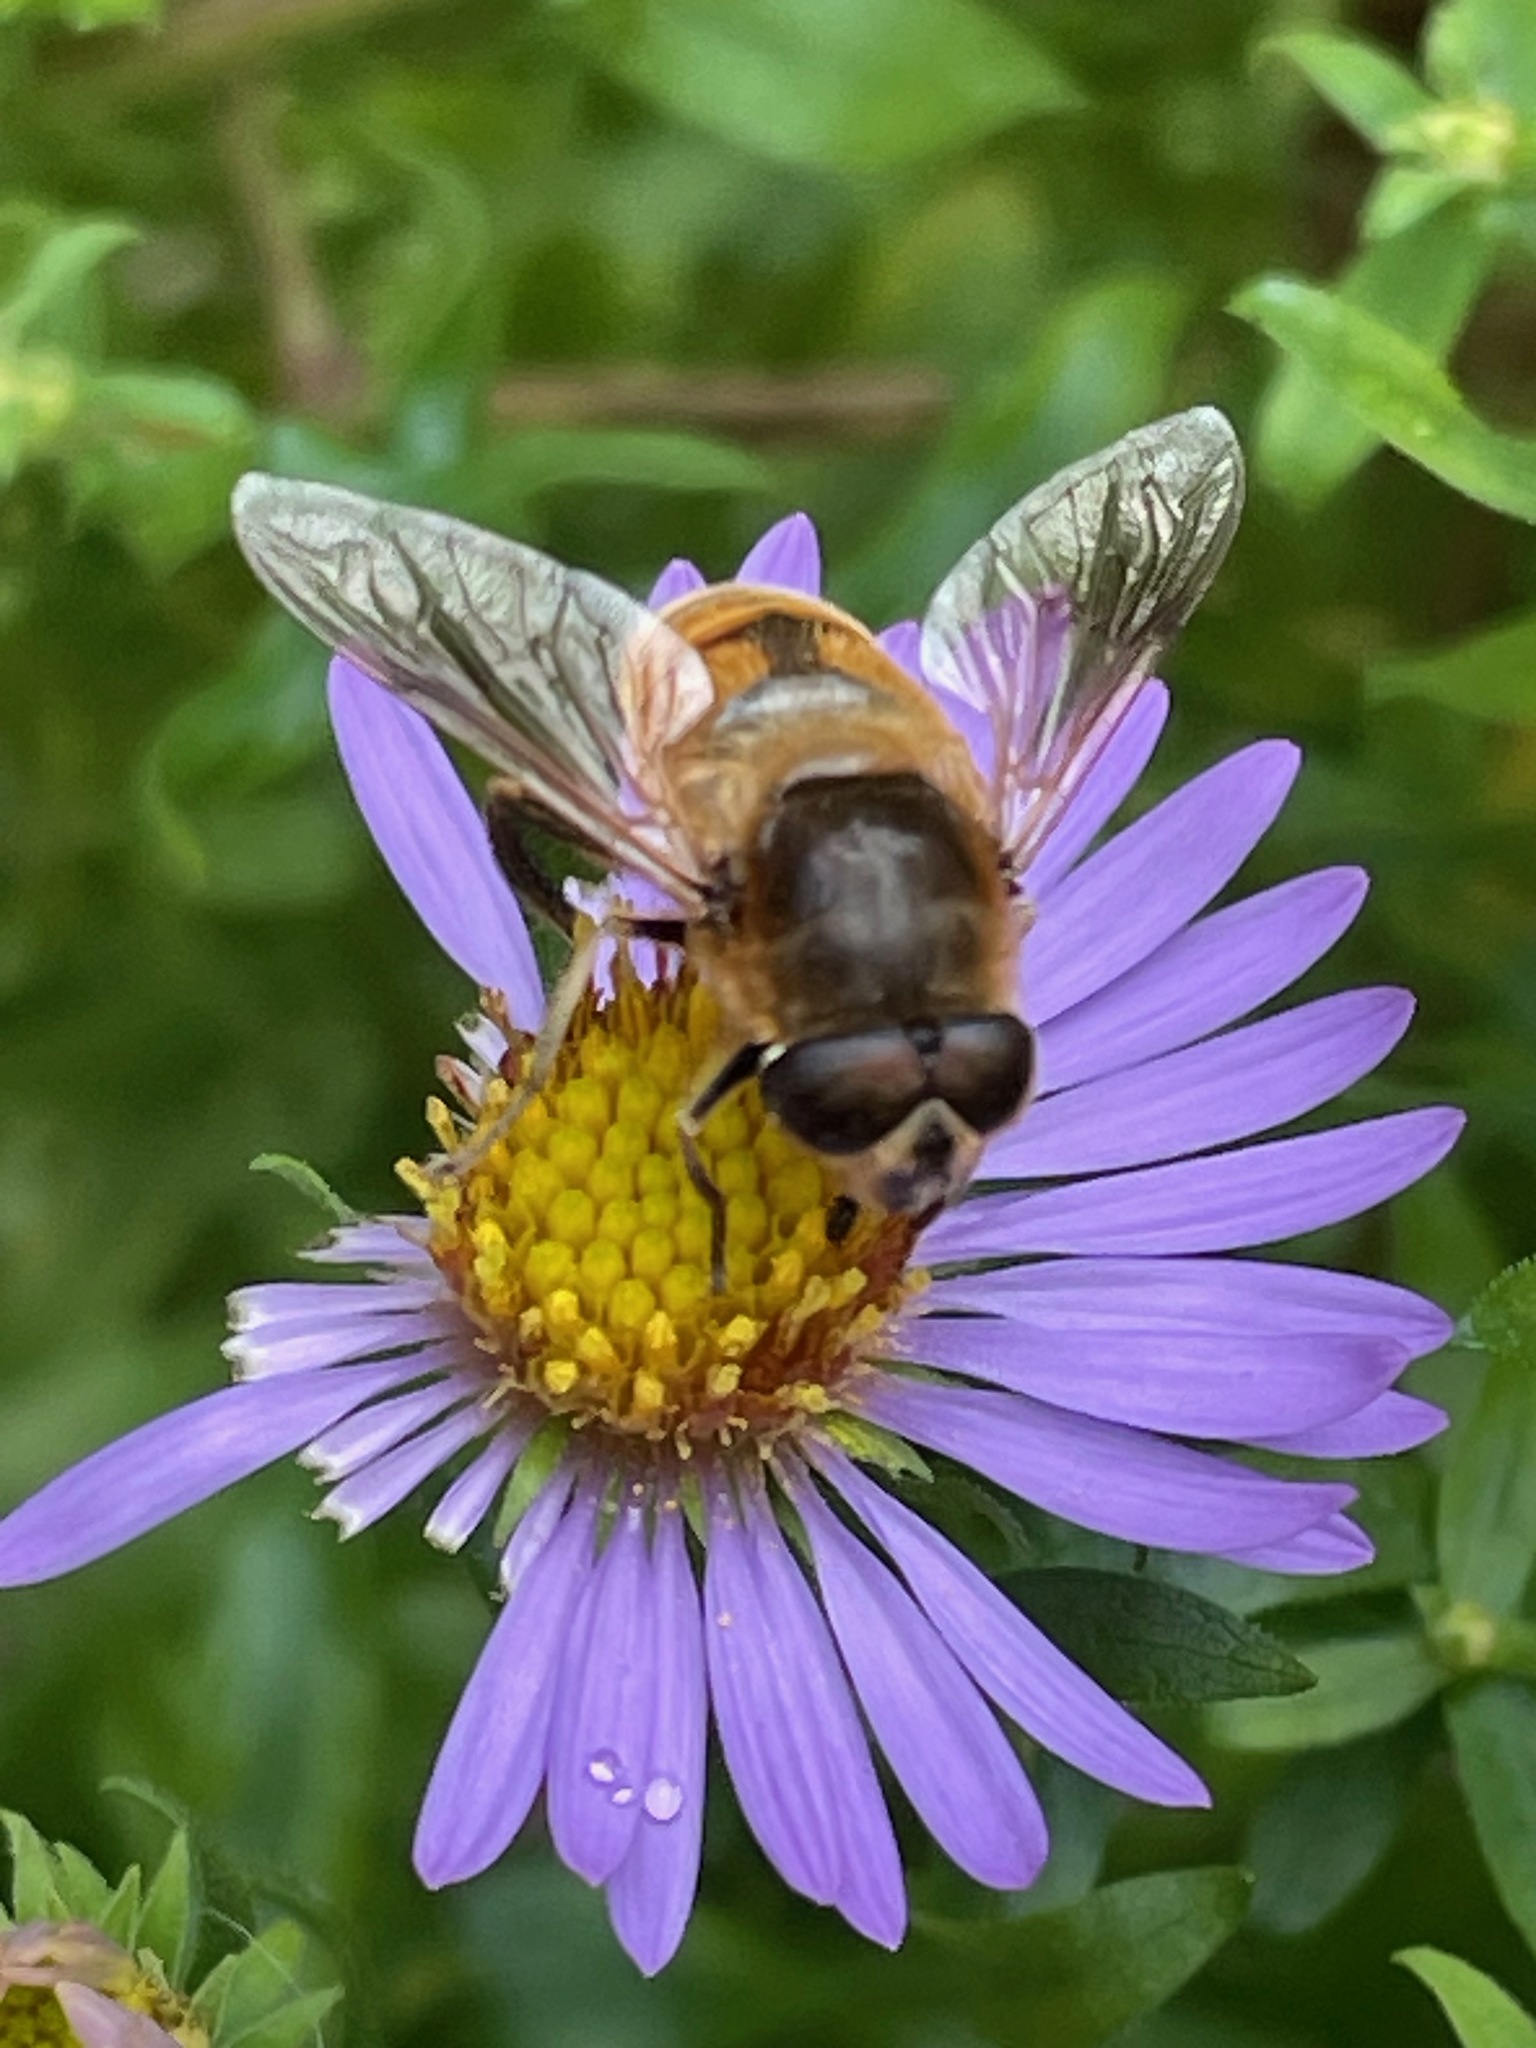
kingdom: Animalia
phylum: Arthropoda
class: Insecta
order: Diptera
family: Syrphidae
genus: Eristalis
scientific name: Eristalis tenax
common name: Drone fly
